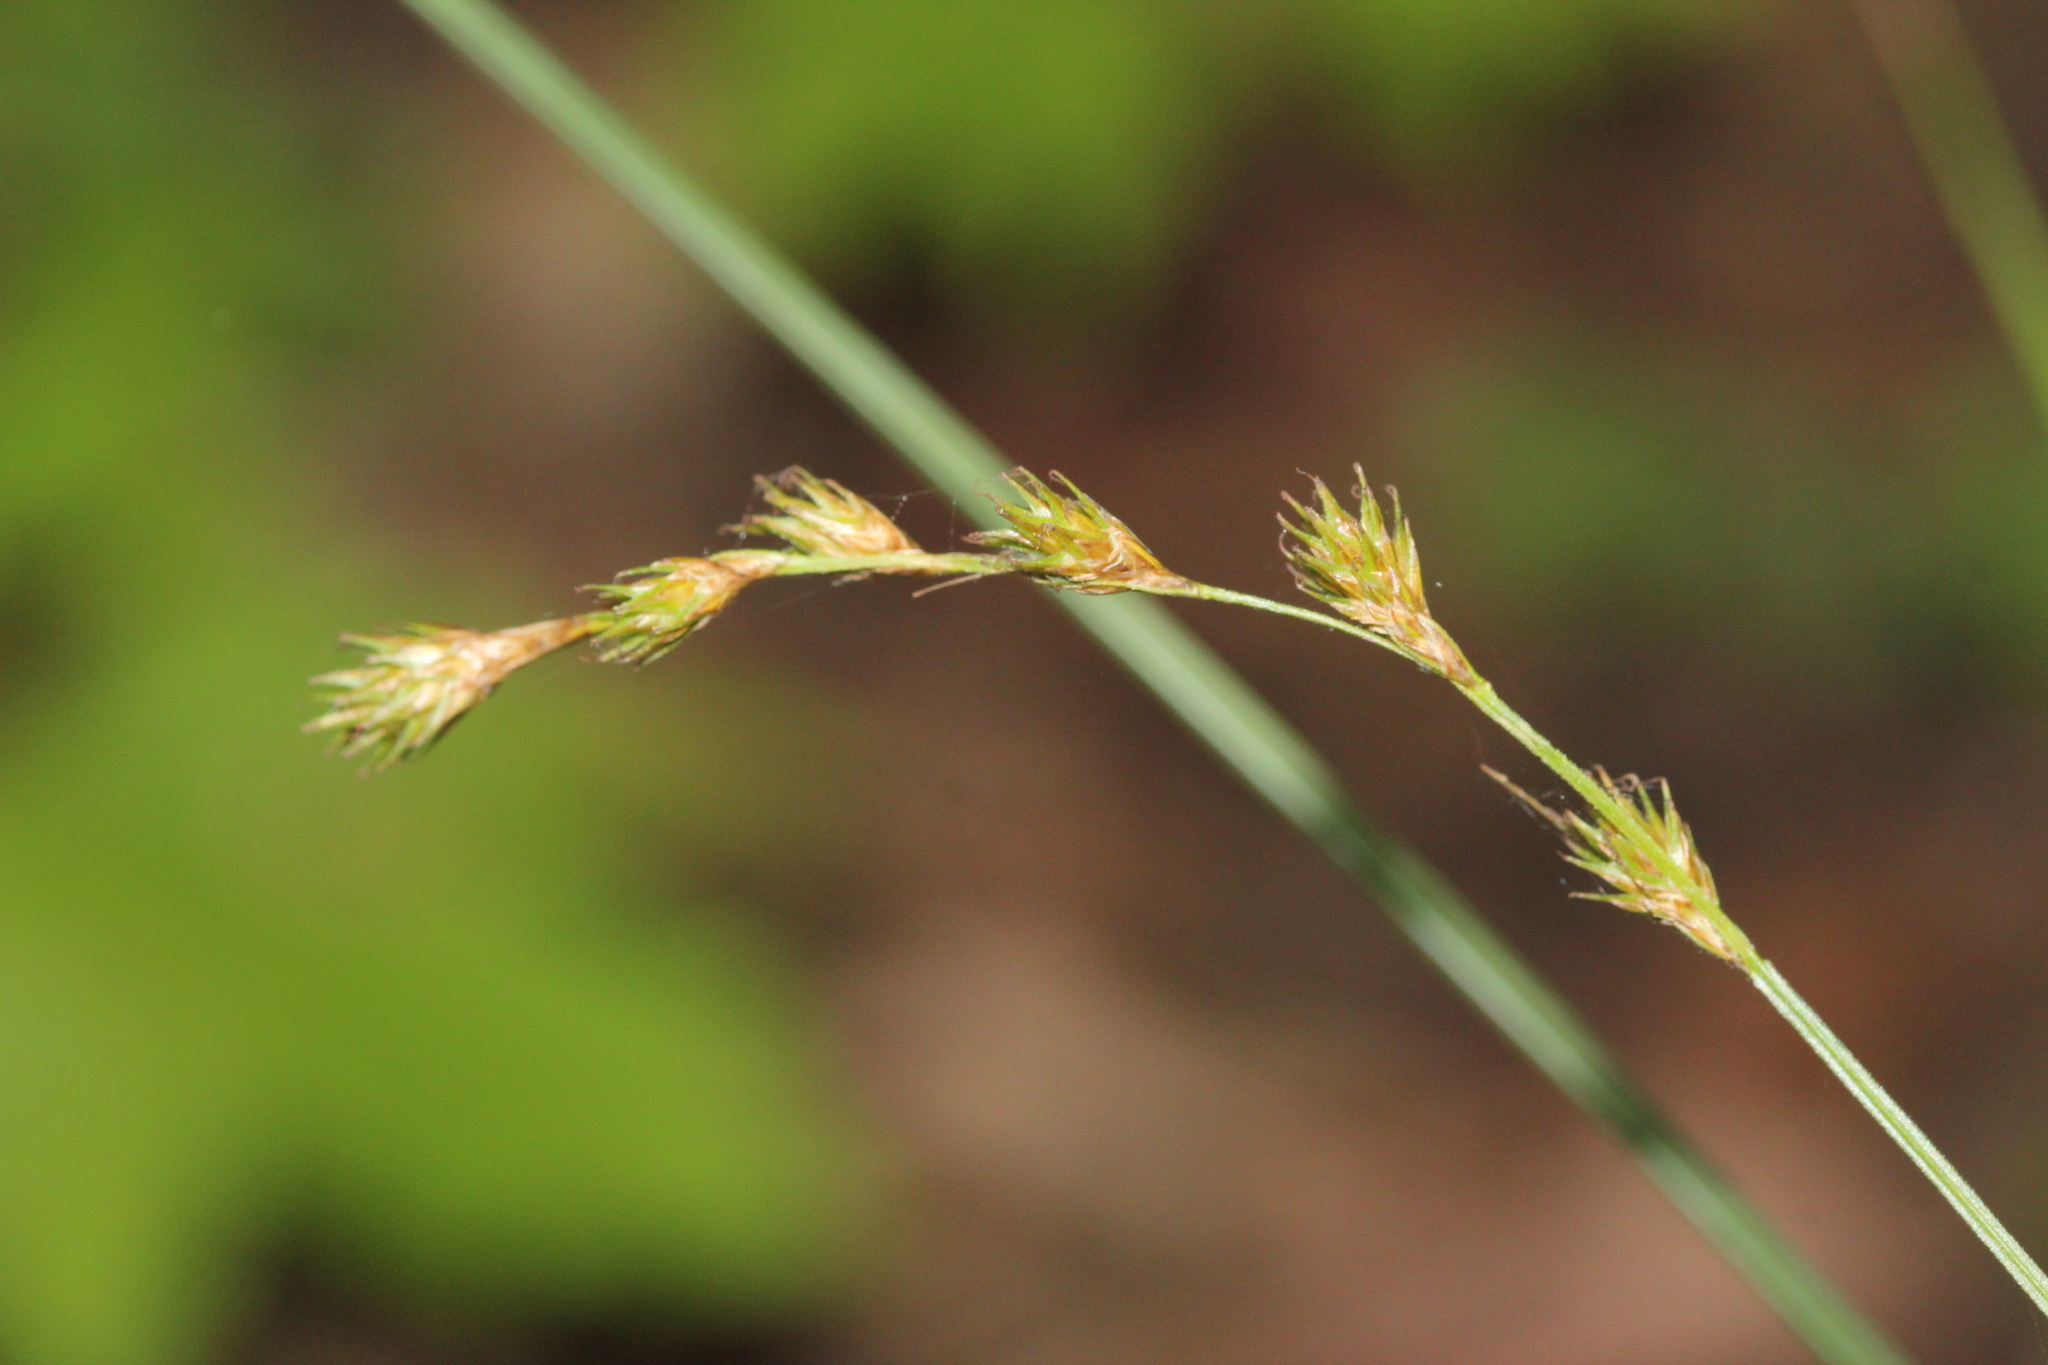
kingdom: Plantae
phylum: Tracheophyta
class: Liliopsida
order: Poales
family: Cyperaceae
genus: Carex
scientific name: Carex projecta
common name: Loose-headed oval sedge
